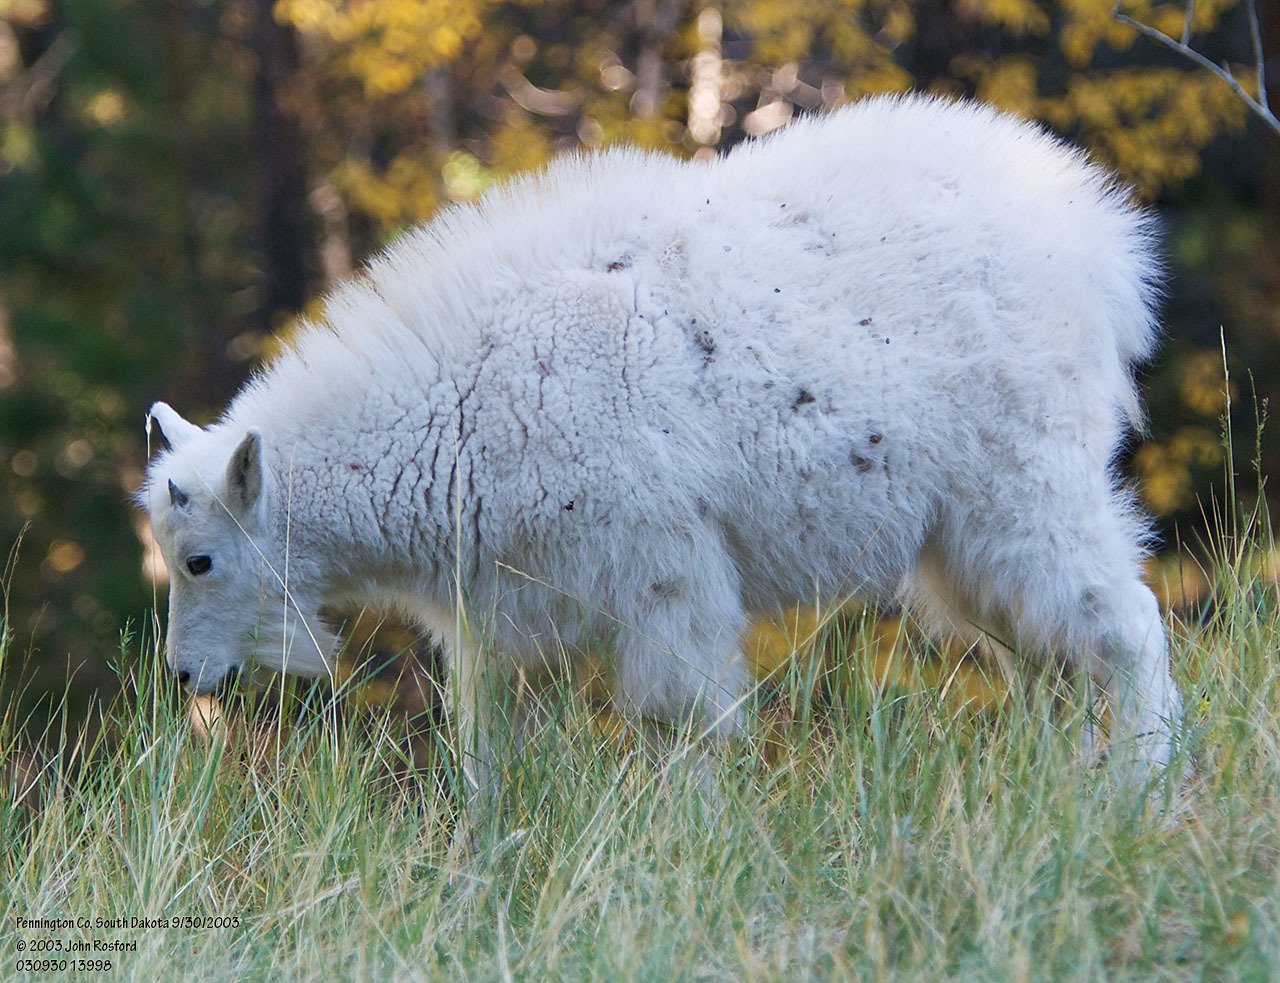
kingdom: Animalia
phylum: Chordata
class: Mammalia
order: Artiodactyla
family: Bovidae
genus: Oreamnos
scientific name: Oreamnos americanus
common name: Mountain goat
